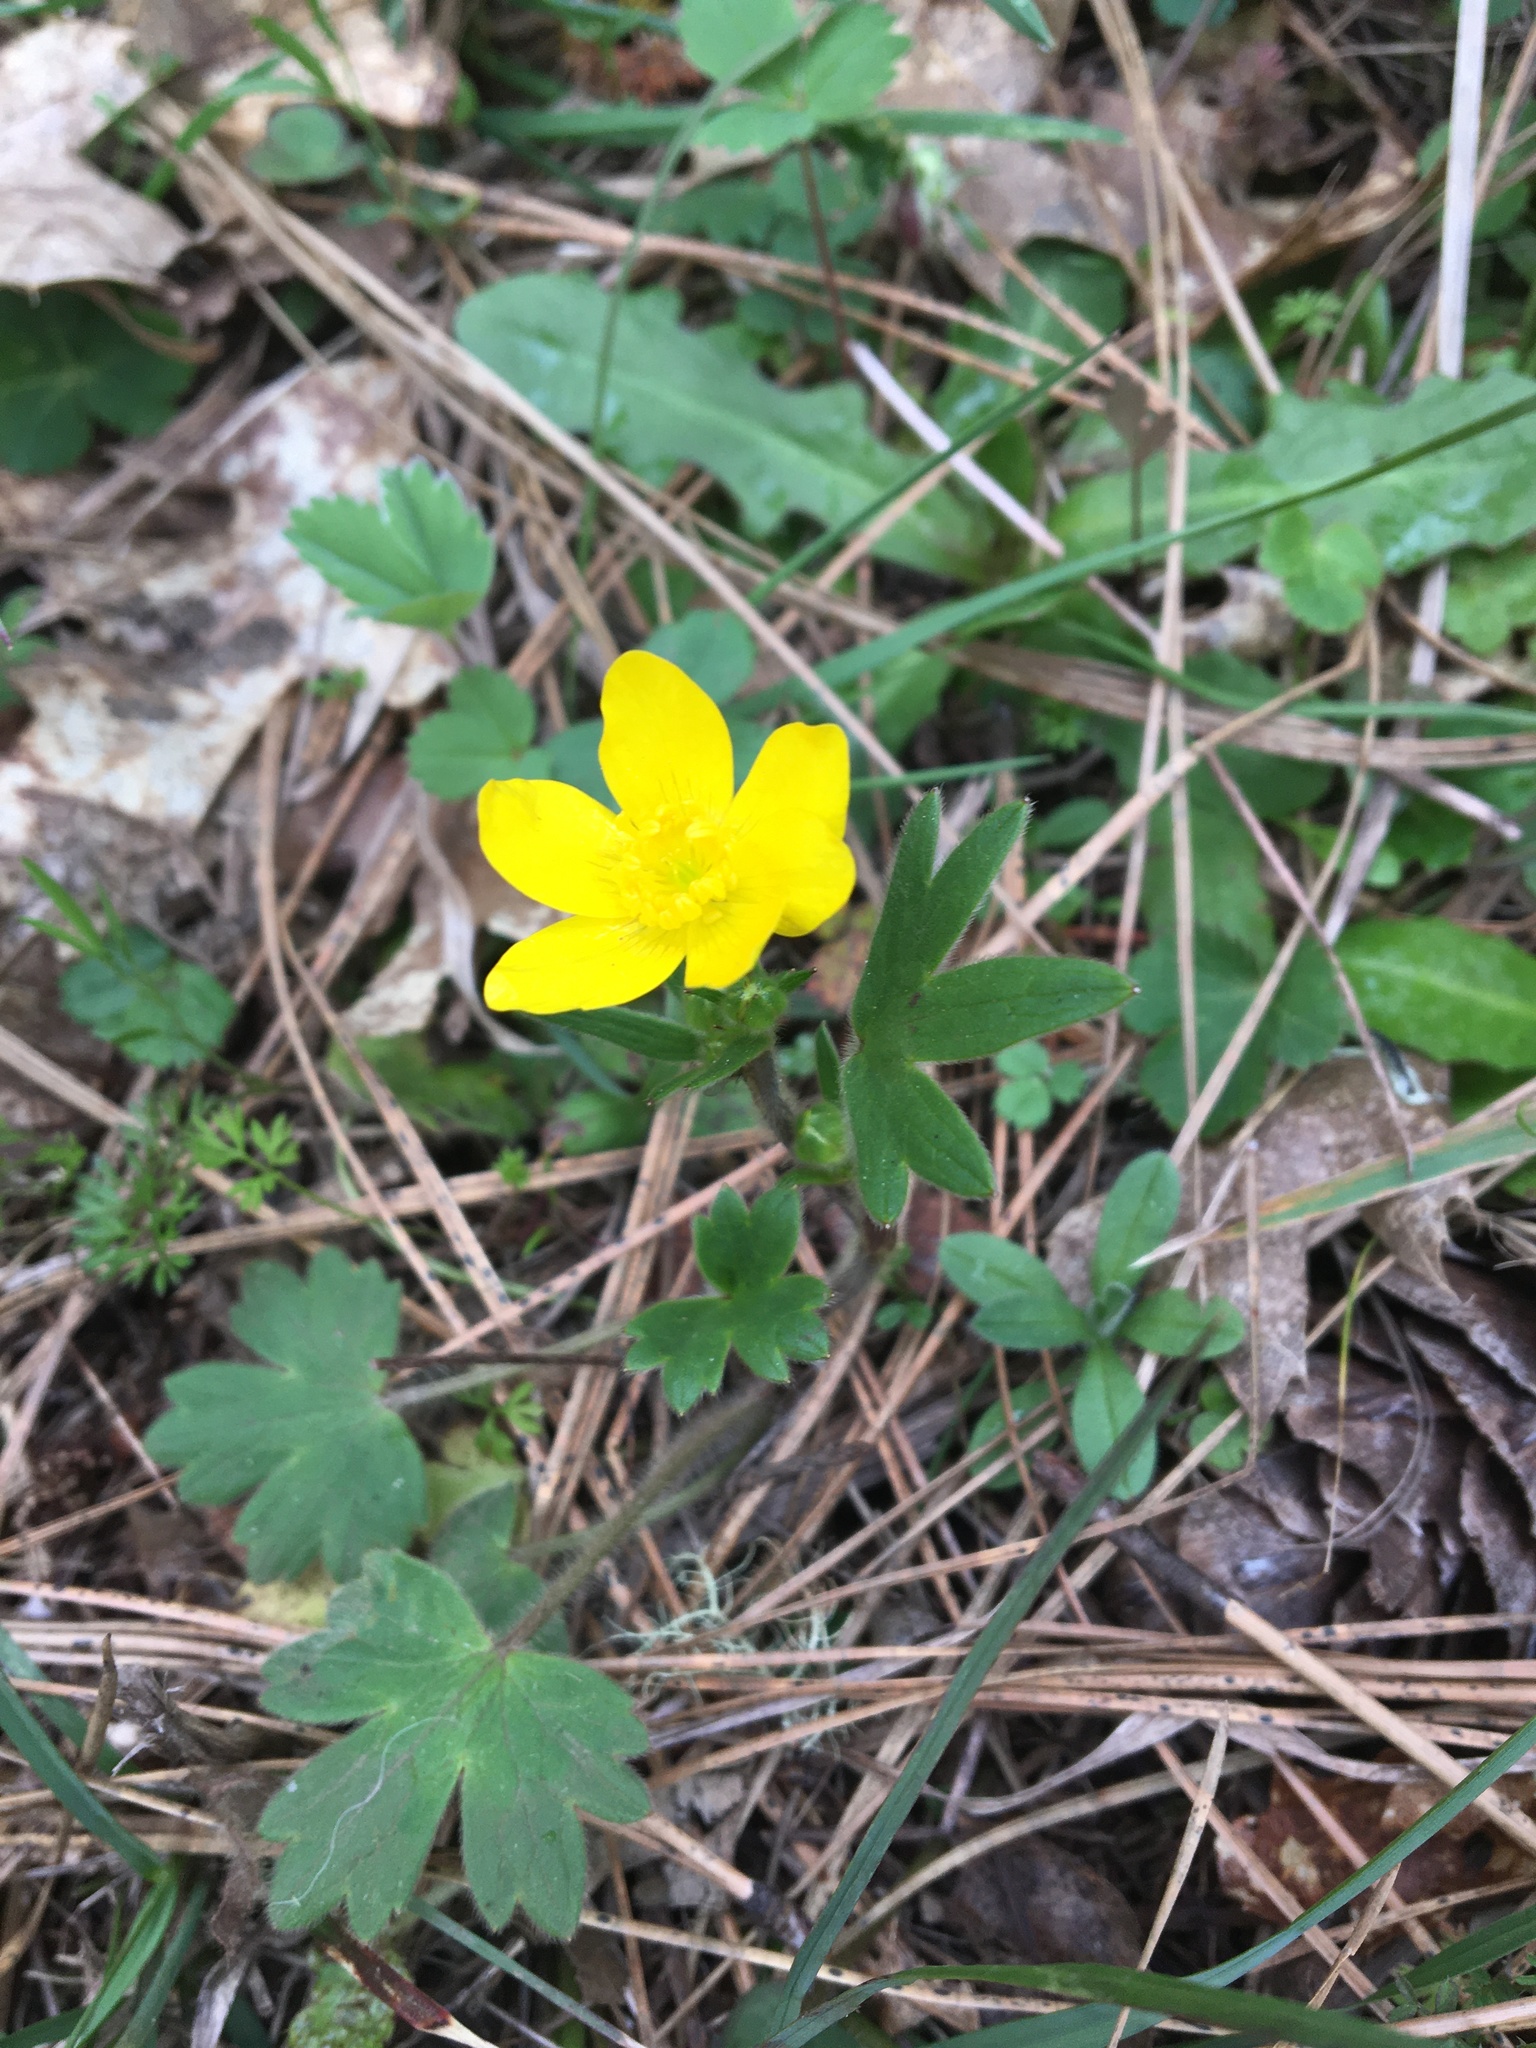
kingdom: Plantae
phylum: Tracheophyta
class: Magnoliopsida
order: Ranunculales
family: Ranunculaceae
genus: Ranunculus
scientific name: Ranunculus occidentalis
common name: Western buttercup
